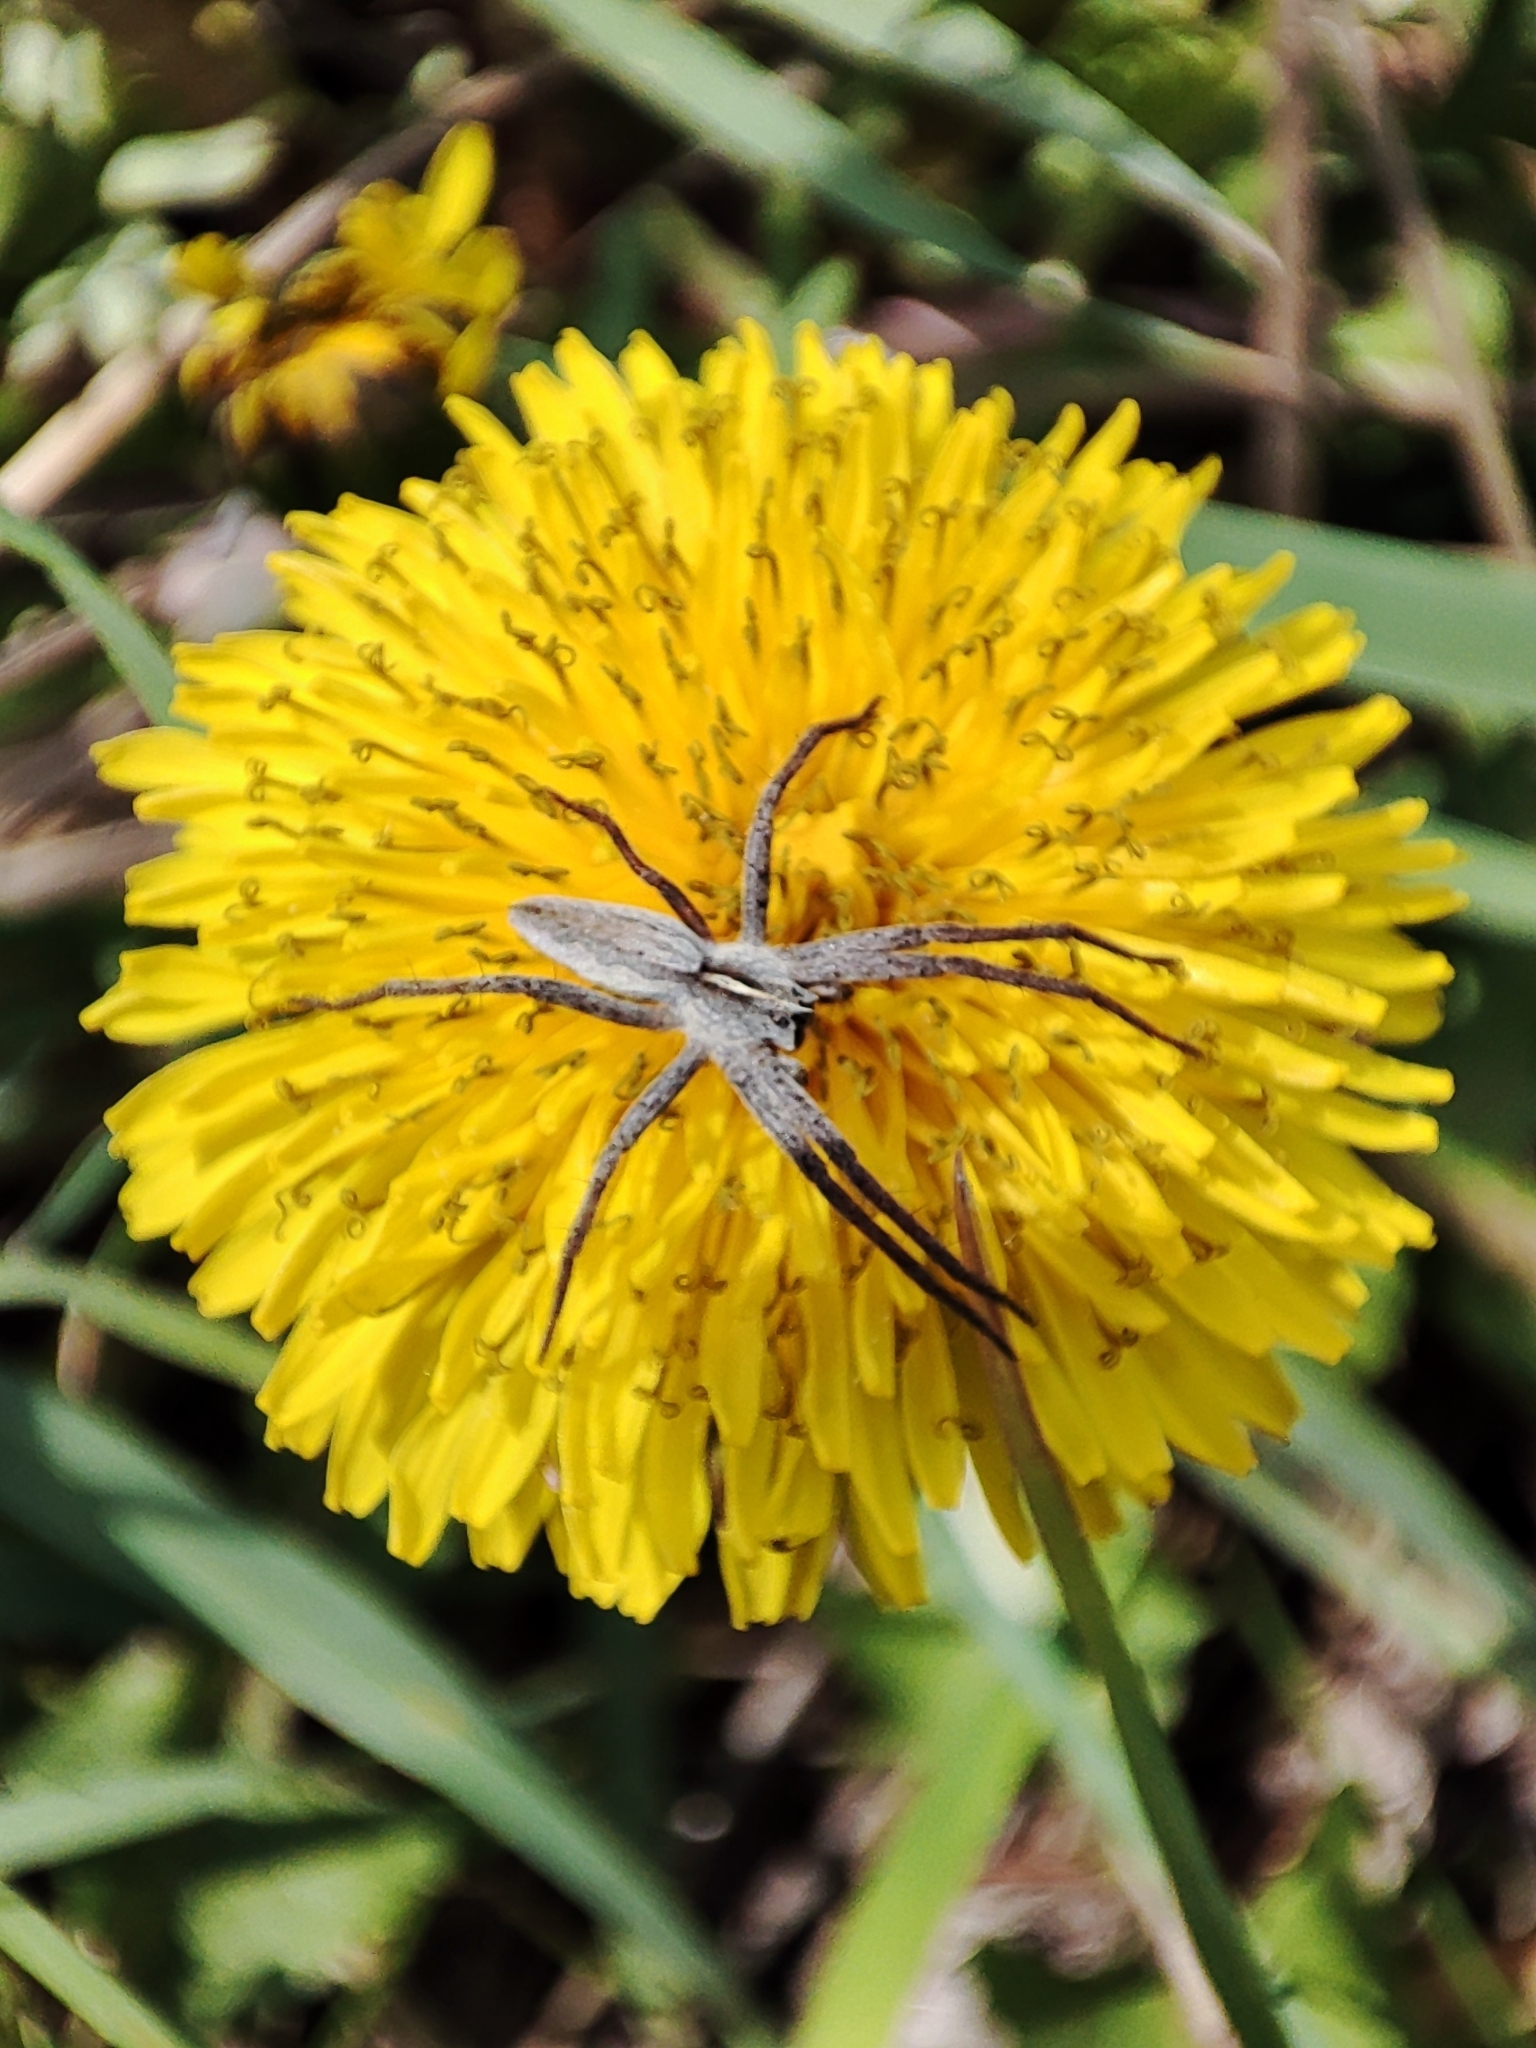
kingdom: Animalia
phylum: Arthropoda
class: Arachnida
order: Araneae
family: Pisauridae
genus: Pisaura
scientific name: Pisaura
